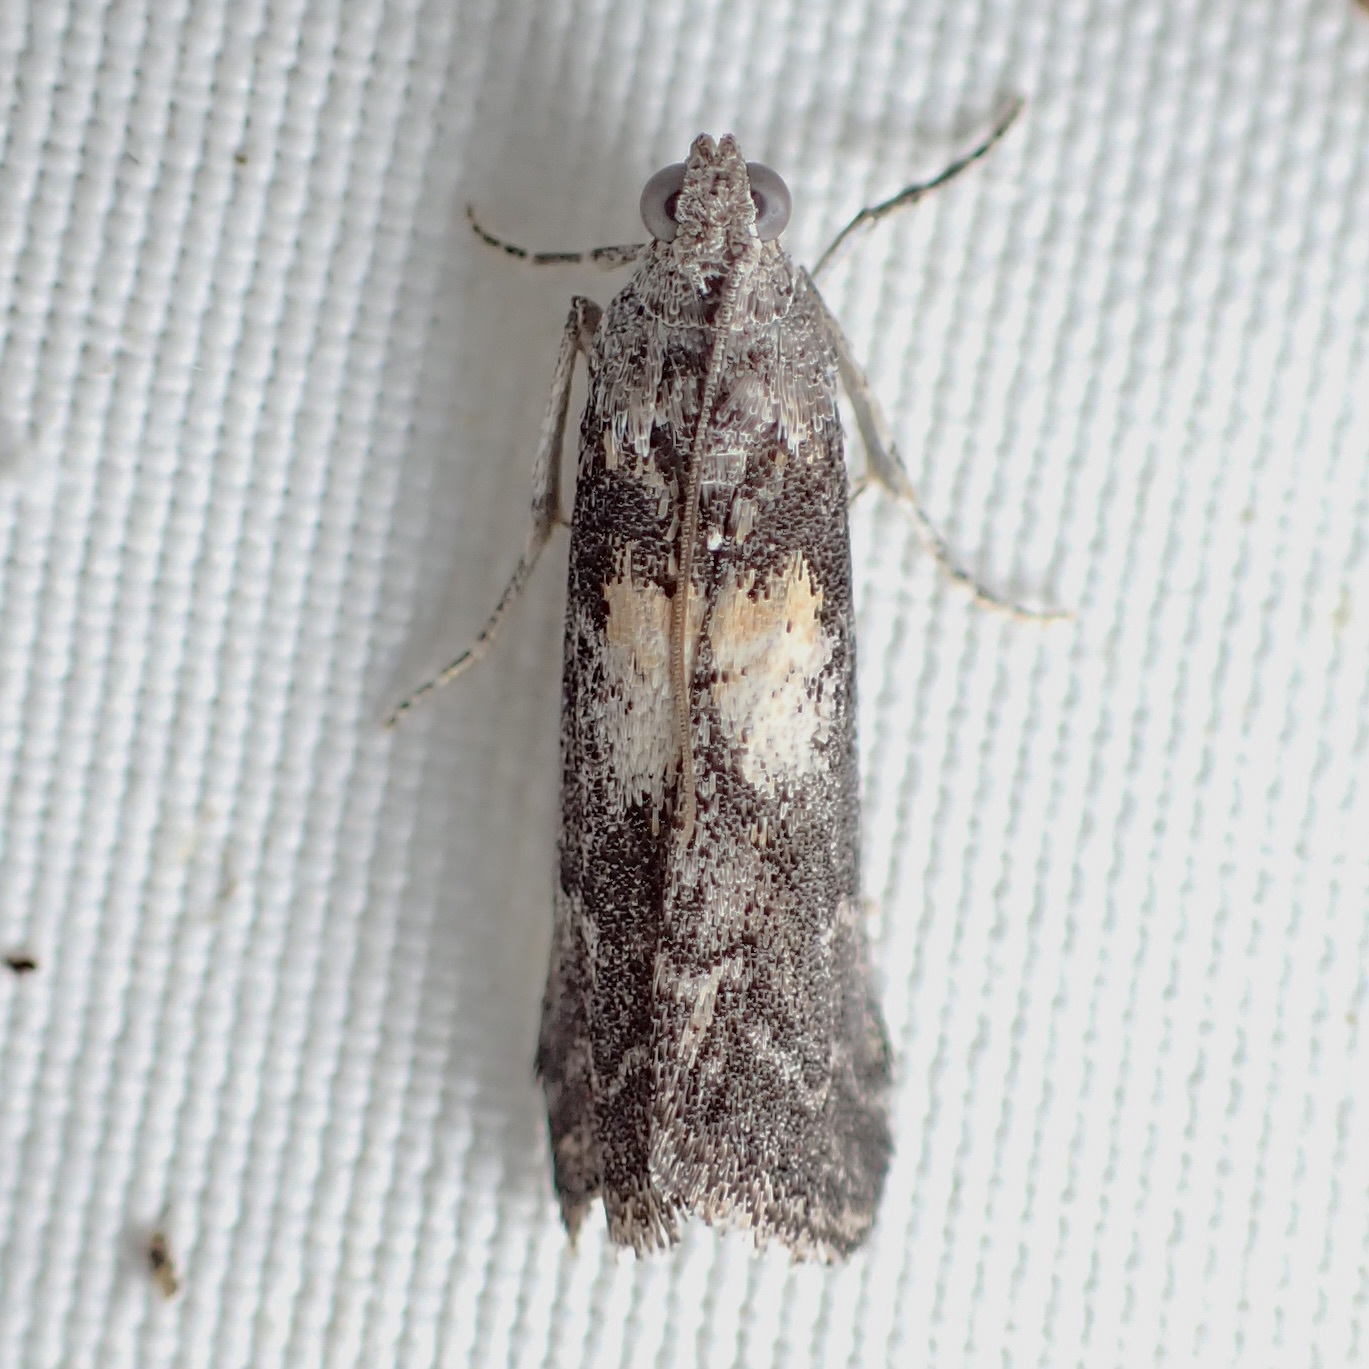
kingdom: Animalia
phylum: Arthropoda
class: Insecta
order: Lepidoptera
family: Pyralidae
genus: Tacoma
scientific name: Tacoma feriella
